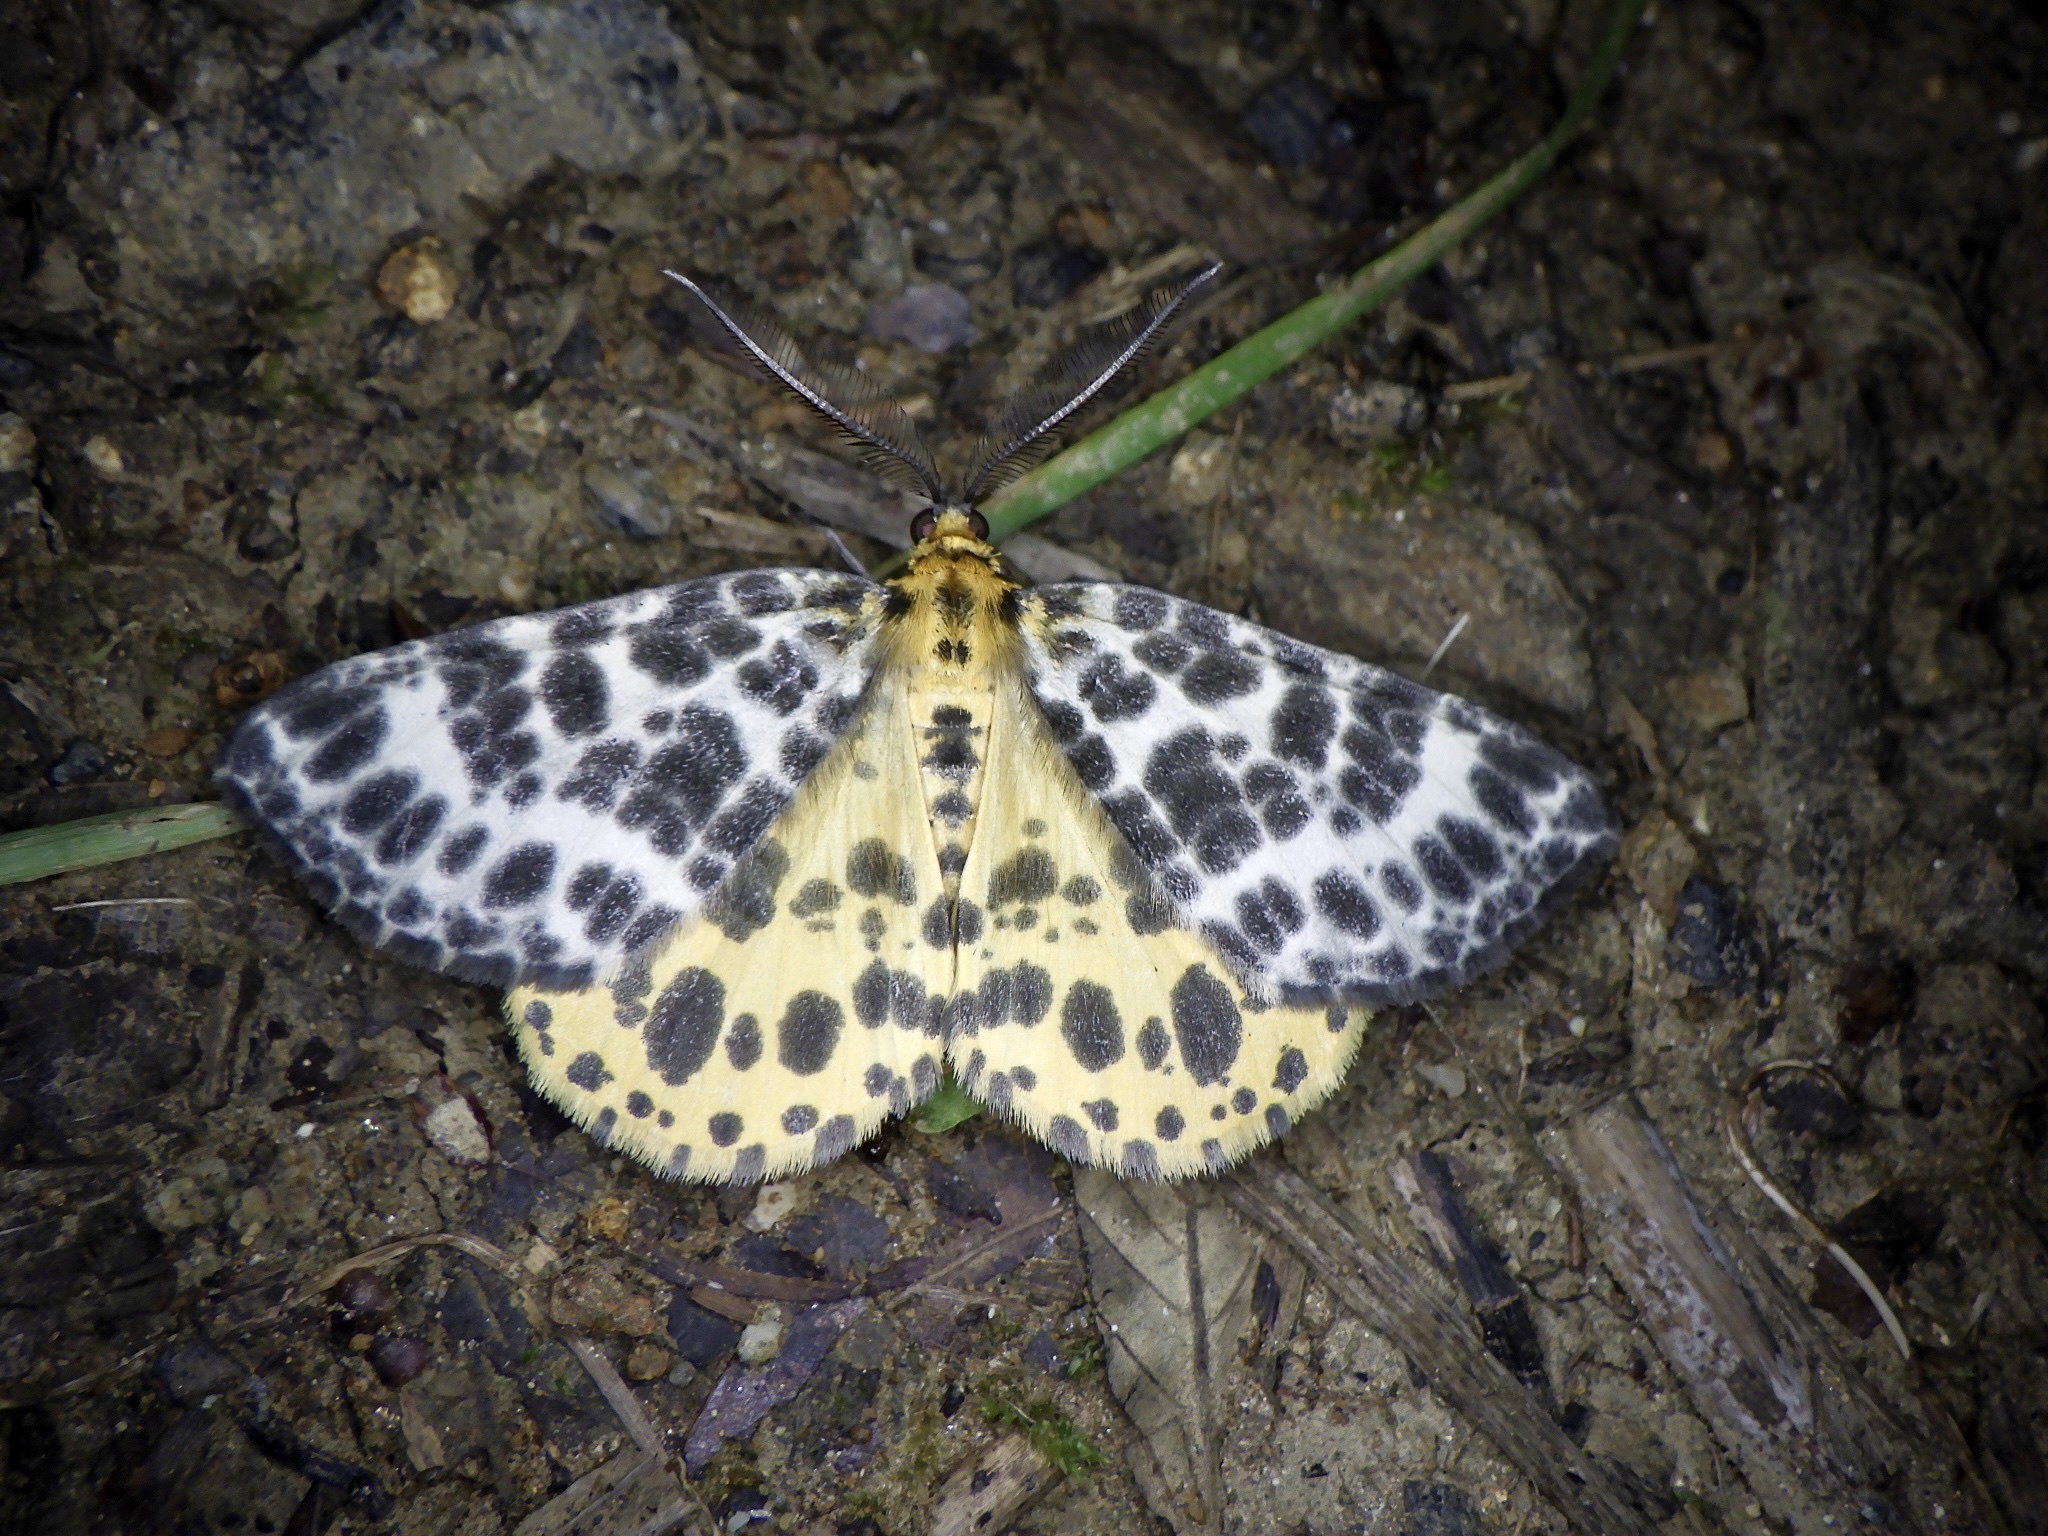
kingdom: Animalia
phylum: Arthropoda
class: Insecta
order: Lepidoptera
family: Geometridae
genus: Arichanna
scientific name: Arichanna melanaria
